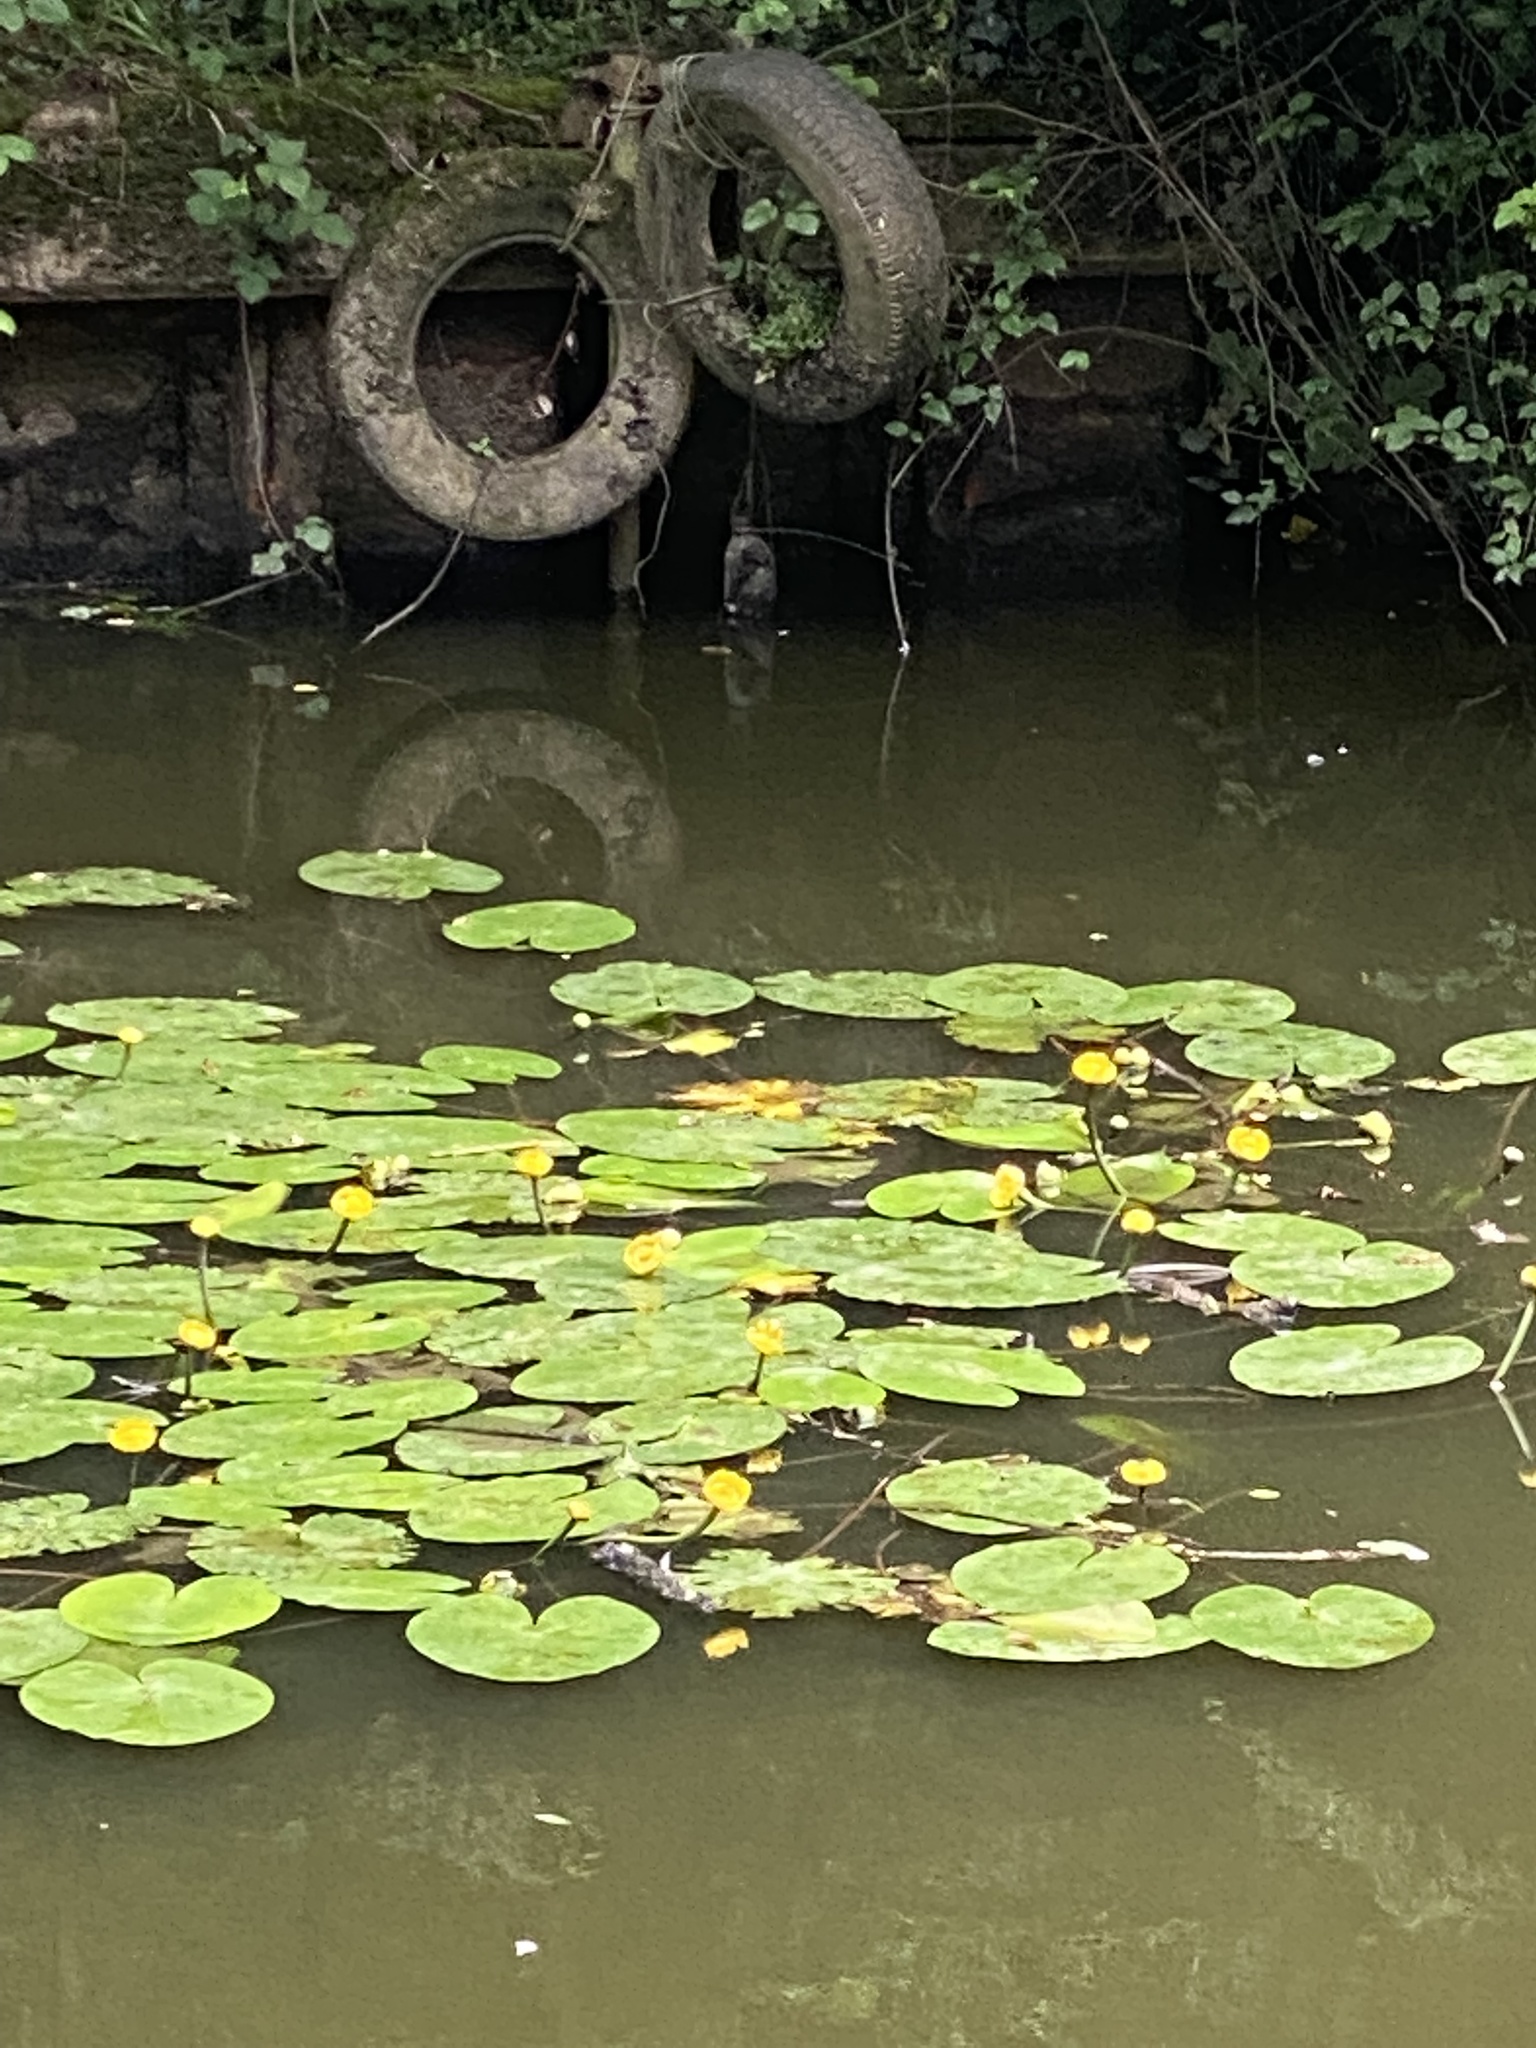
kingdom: Plantae
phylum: Tracheophyta
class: Magnoliopsida
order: Nymphaeales
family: Nymphaeaceae
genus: Nuphar
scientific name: Nuphar lutea
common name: Yellow water-lily
